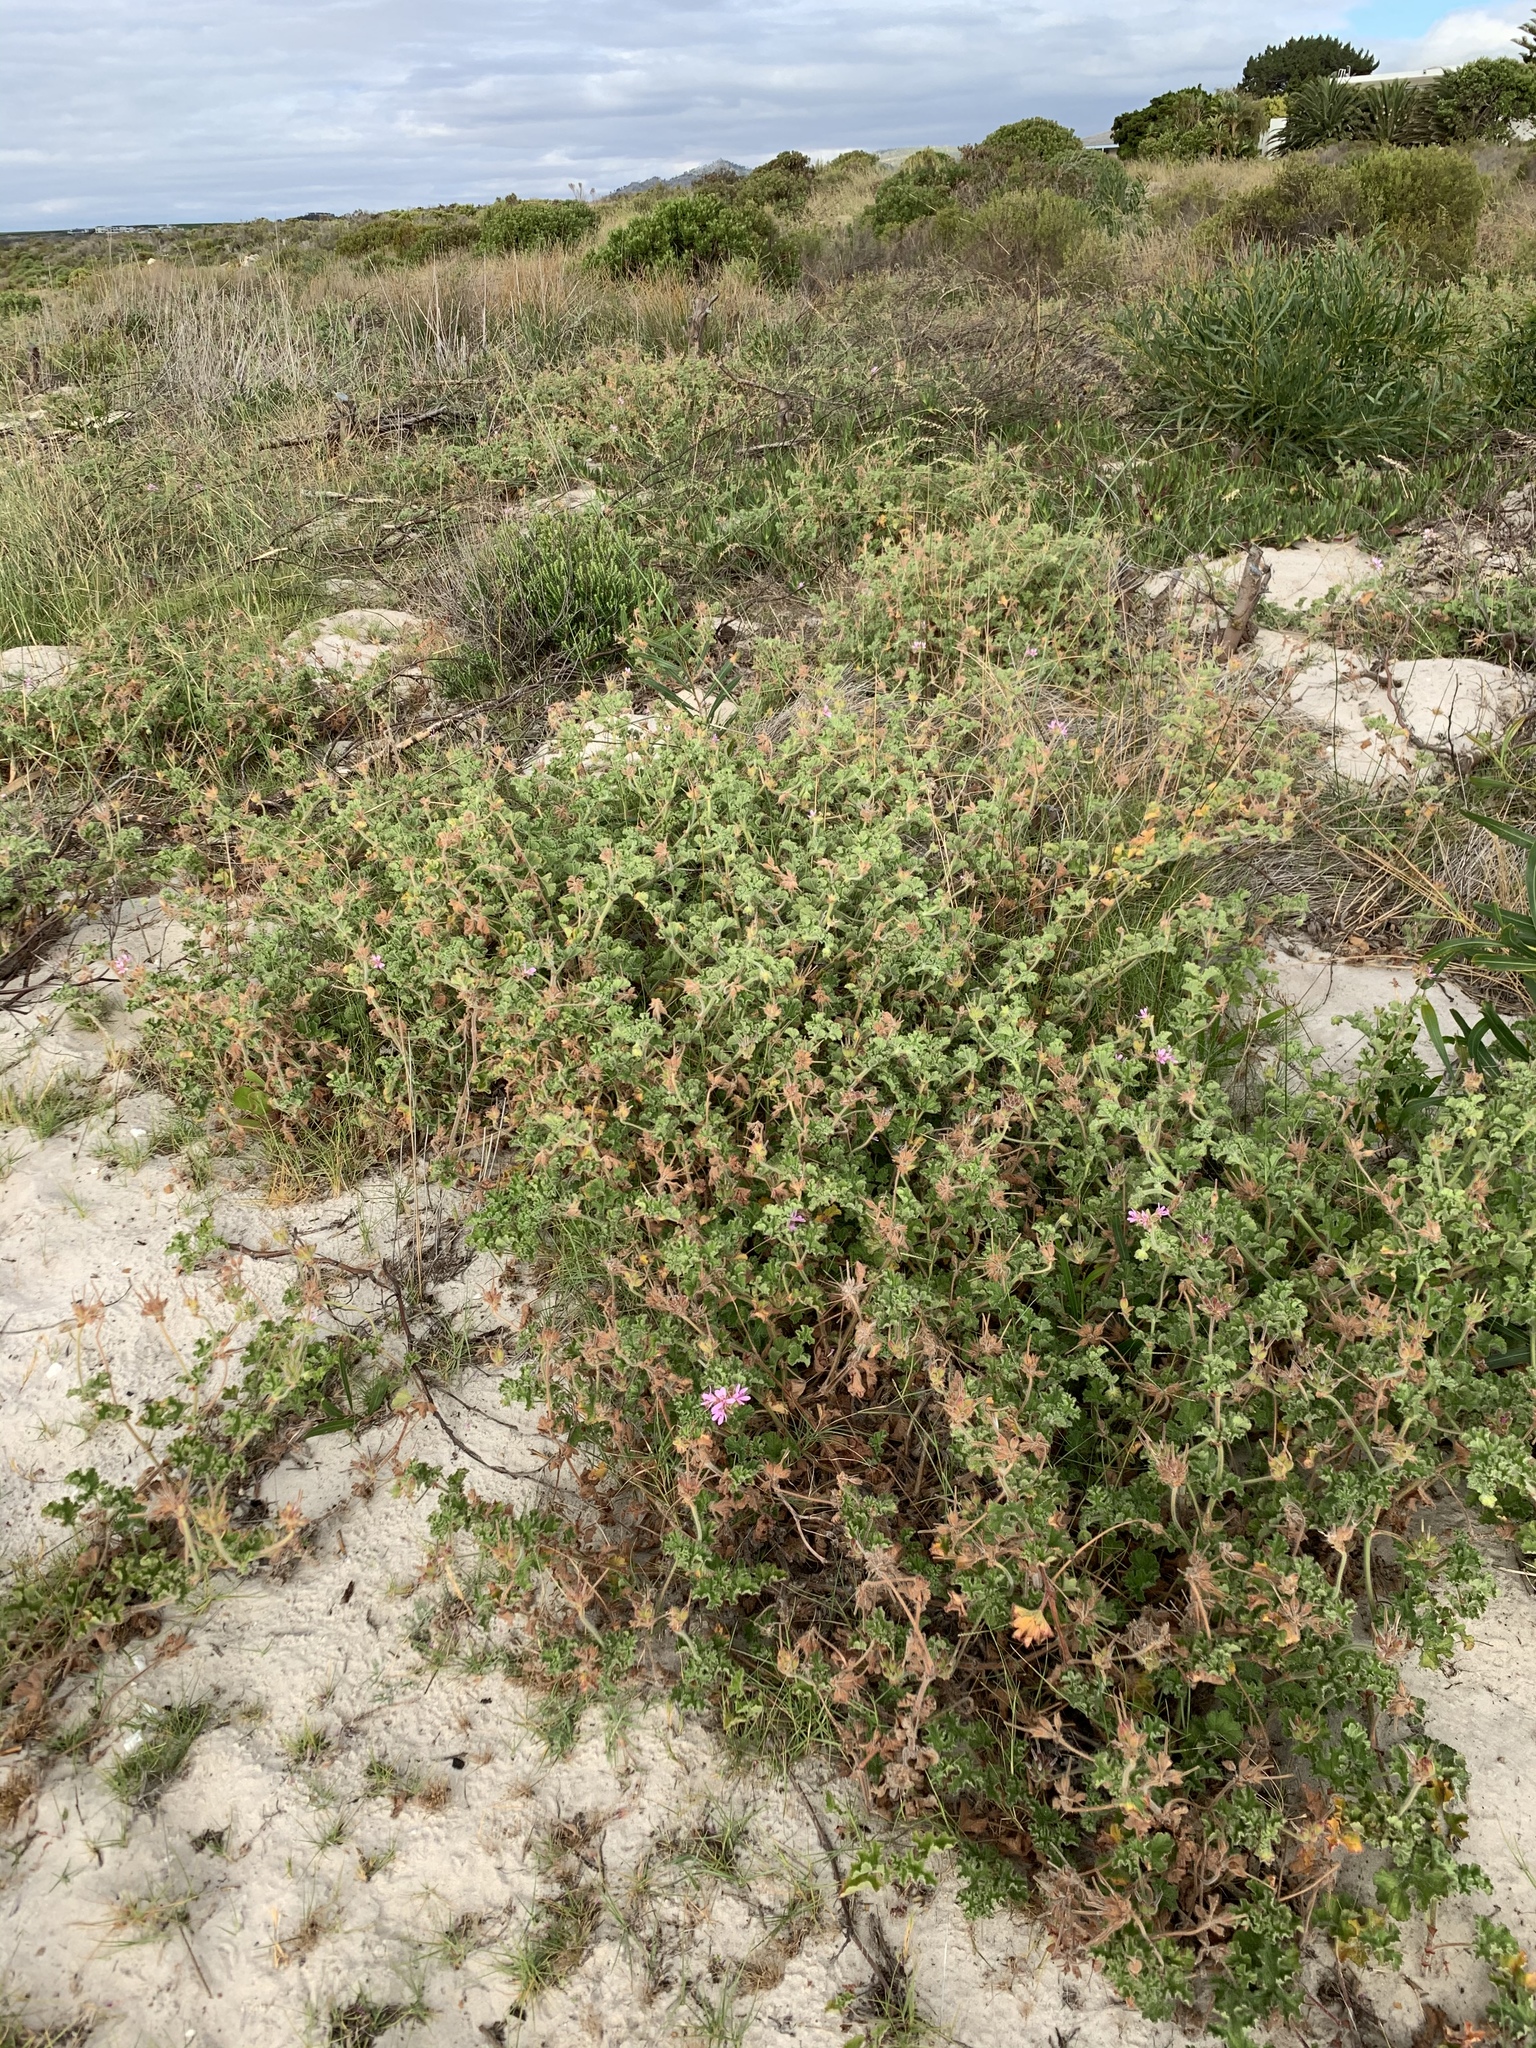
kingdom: Plantae
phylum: Tracheophyta
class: Magnoliopsida
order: Geraniales
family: Geraniaceae
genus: Pelargonium
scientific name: Pelargonium capitatum
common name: Rose scented geranium
